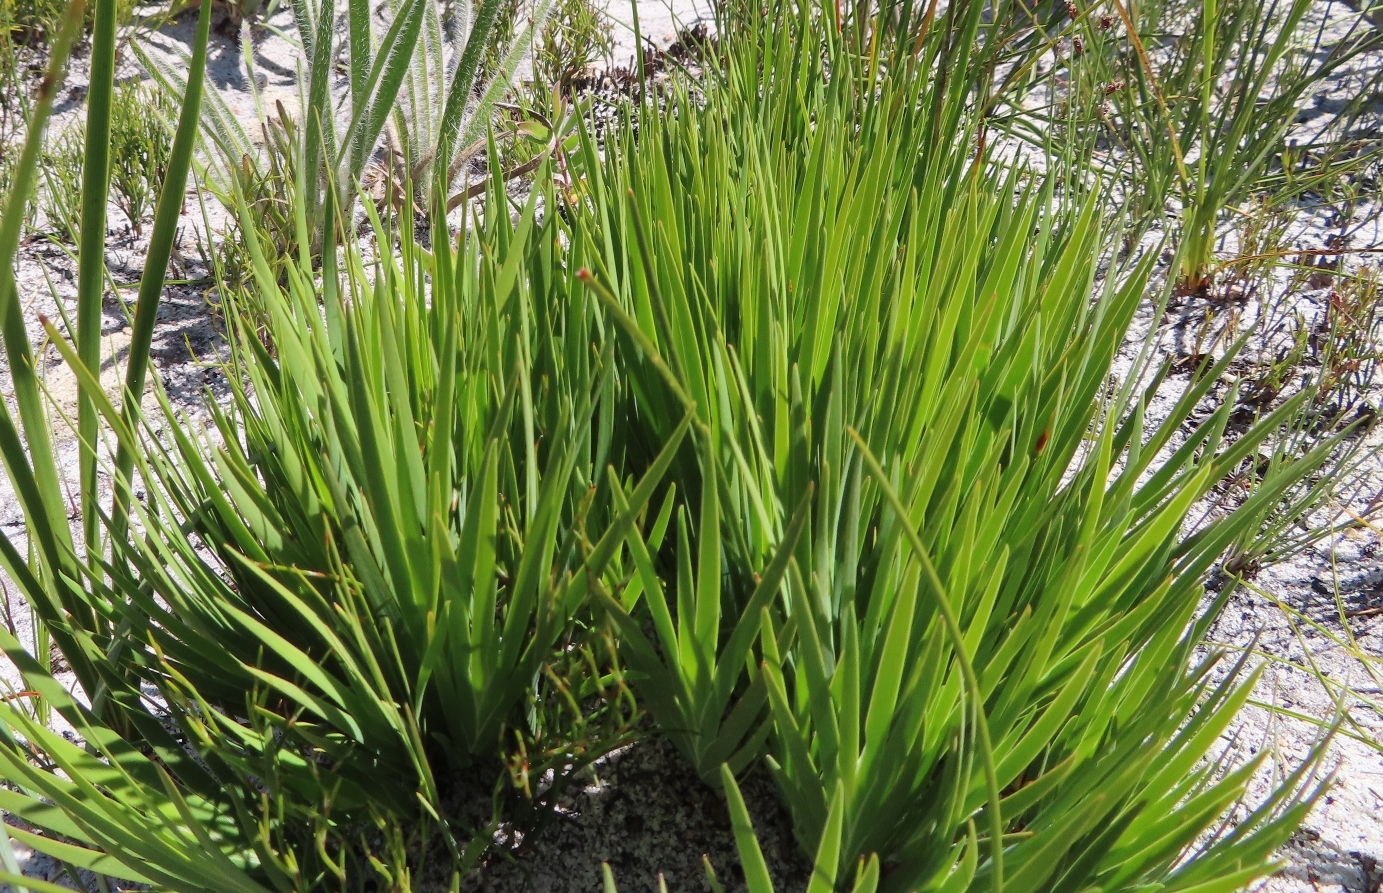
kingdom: Plantae
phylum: Tracheophyta
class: Liliopsida
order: Asparagales
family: Iridaceae
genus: Nivenia
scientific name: Nivenia concinna
